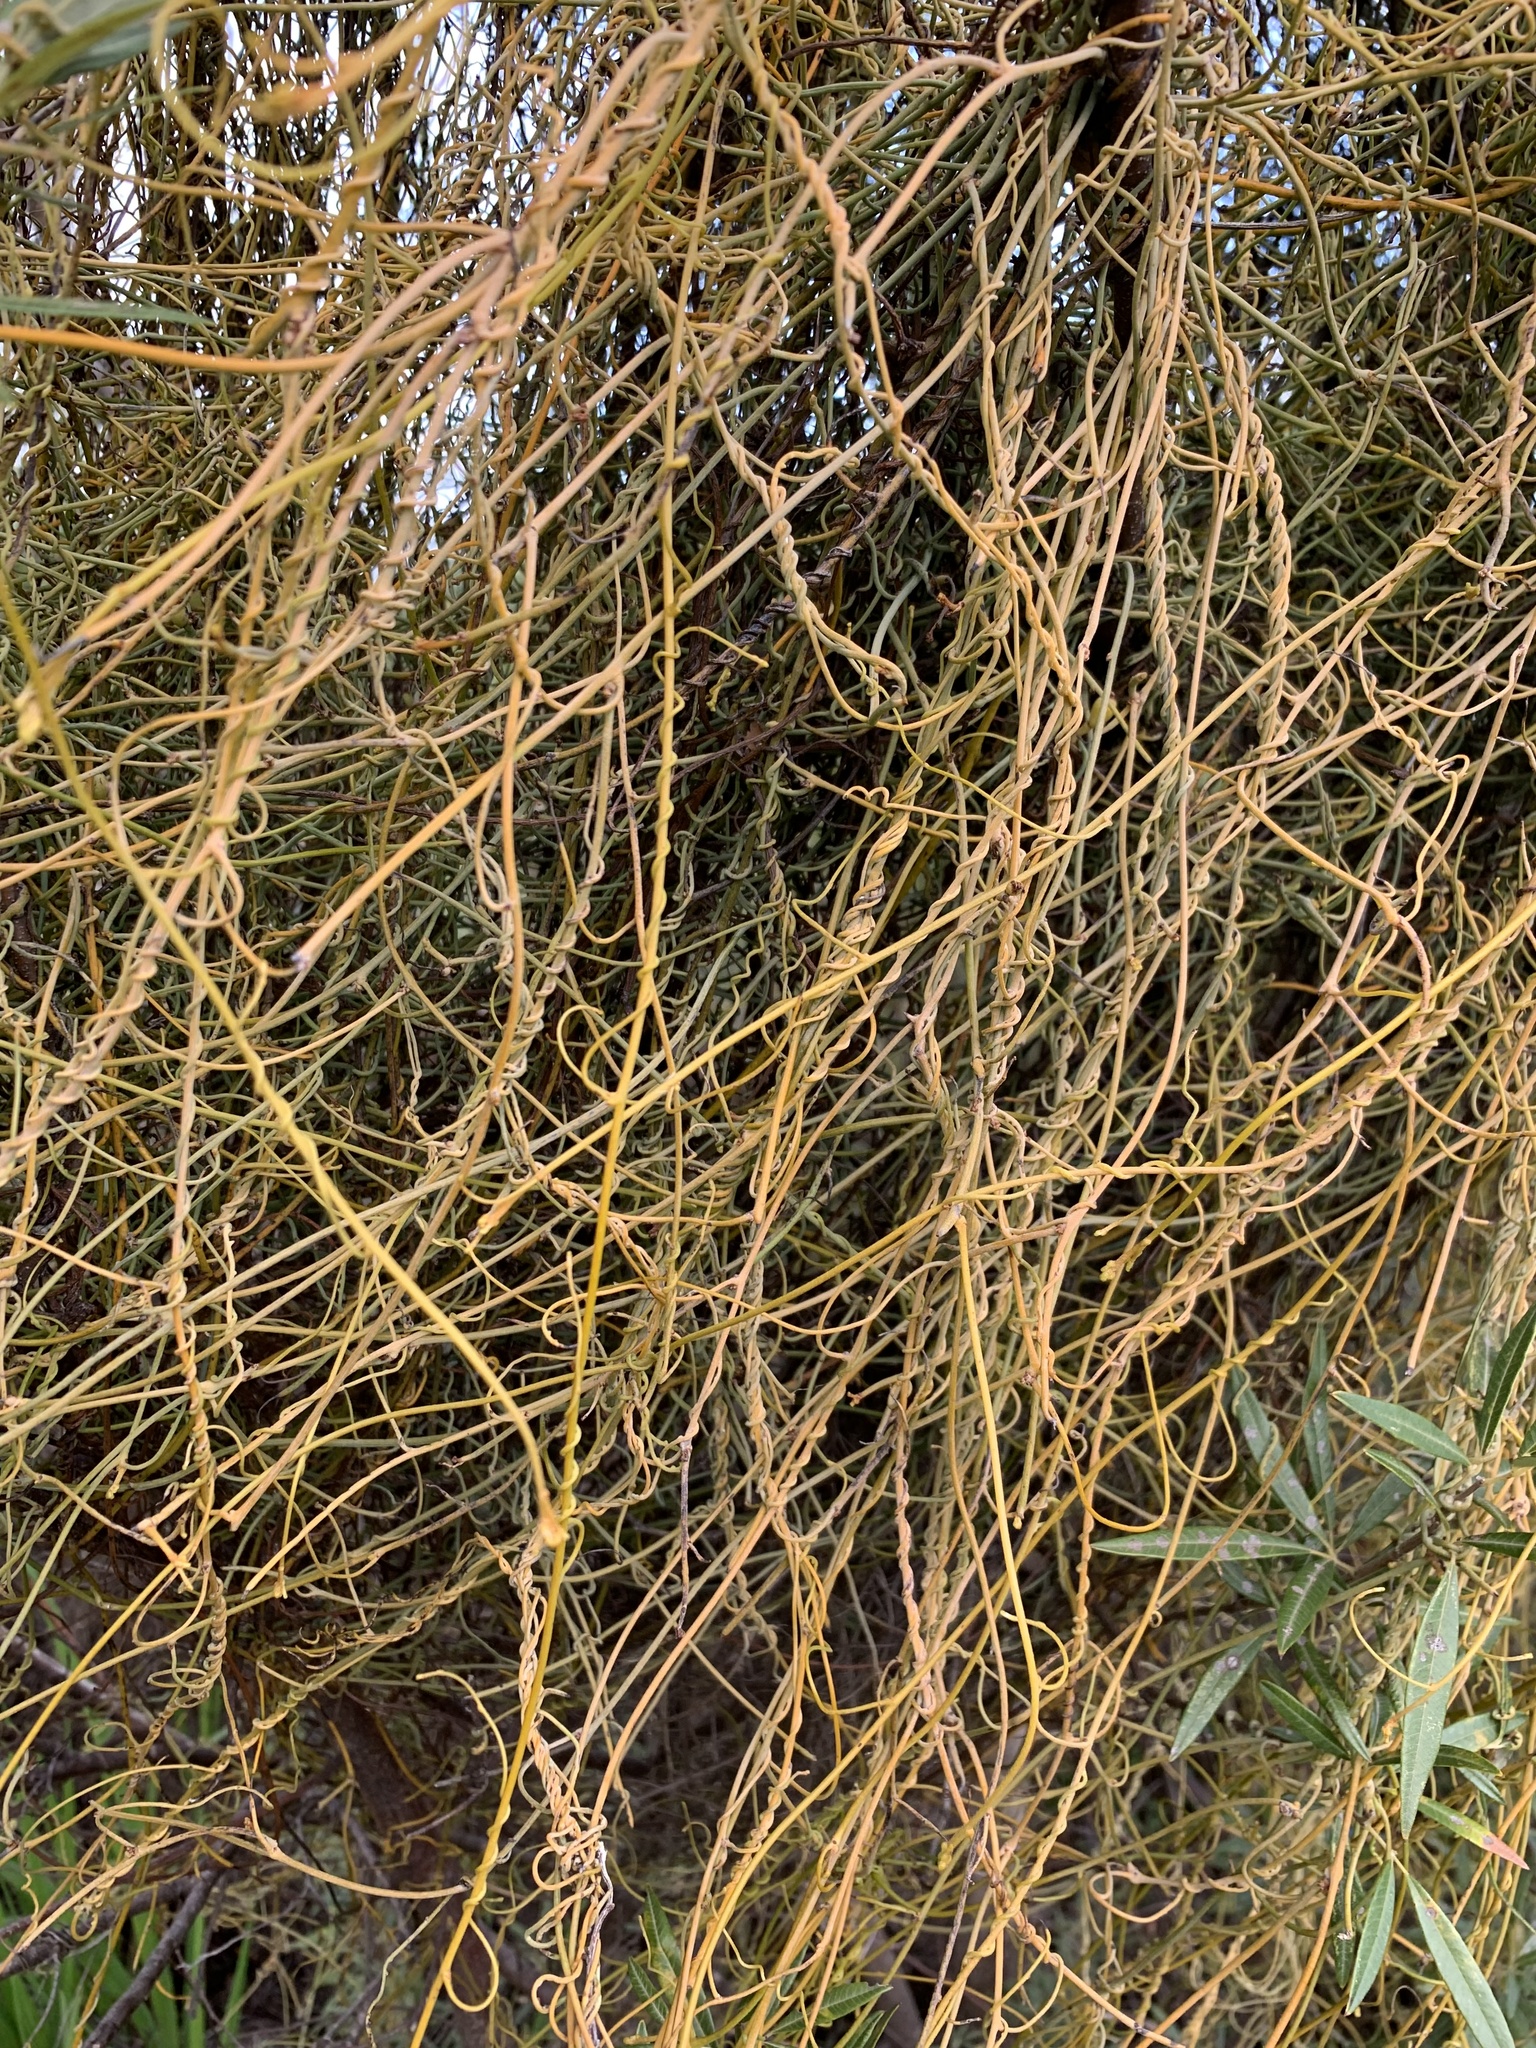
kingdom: Plantae
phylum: Tracheophyta
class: Magnoliopsida
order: Laurales
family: Lauraceae
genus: Cassytha
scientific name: Cassytha ciliolata
